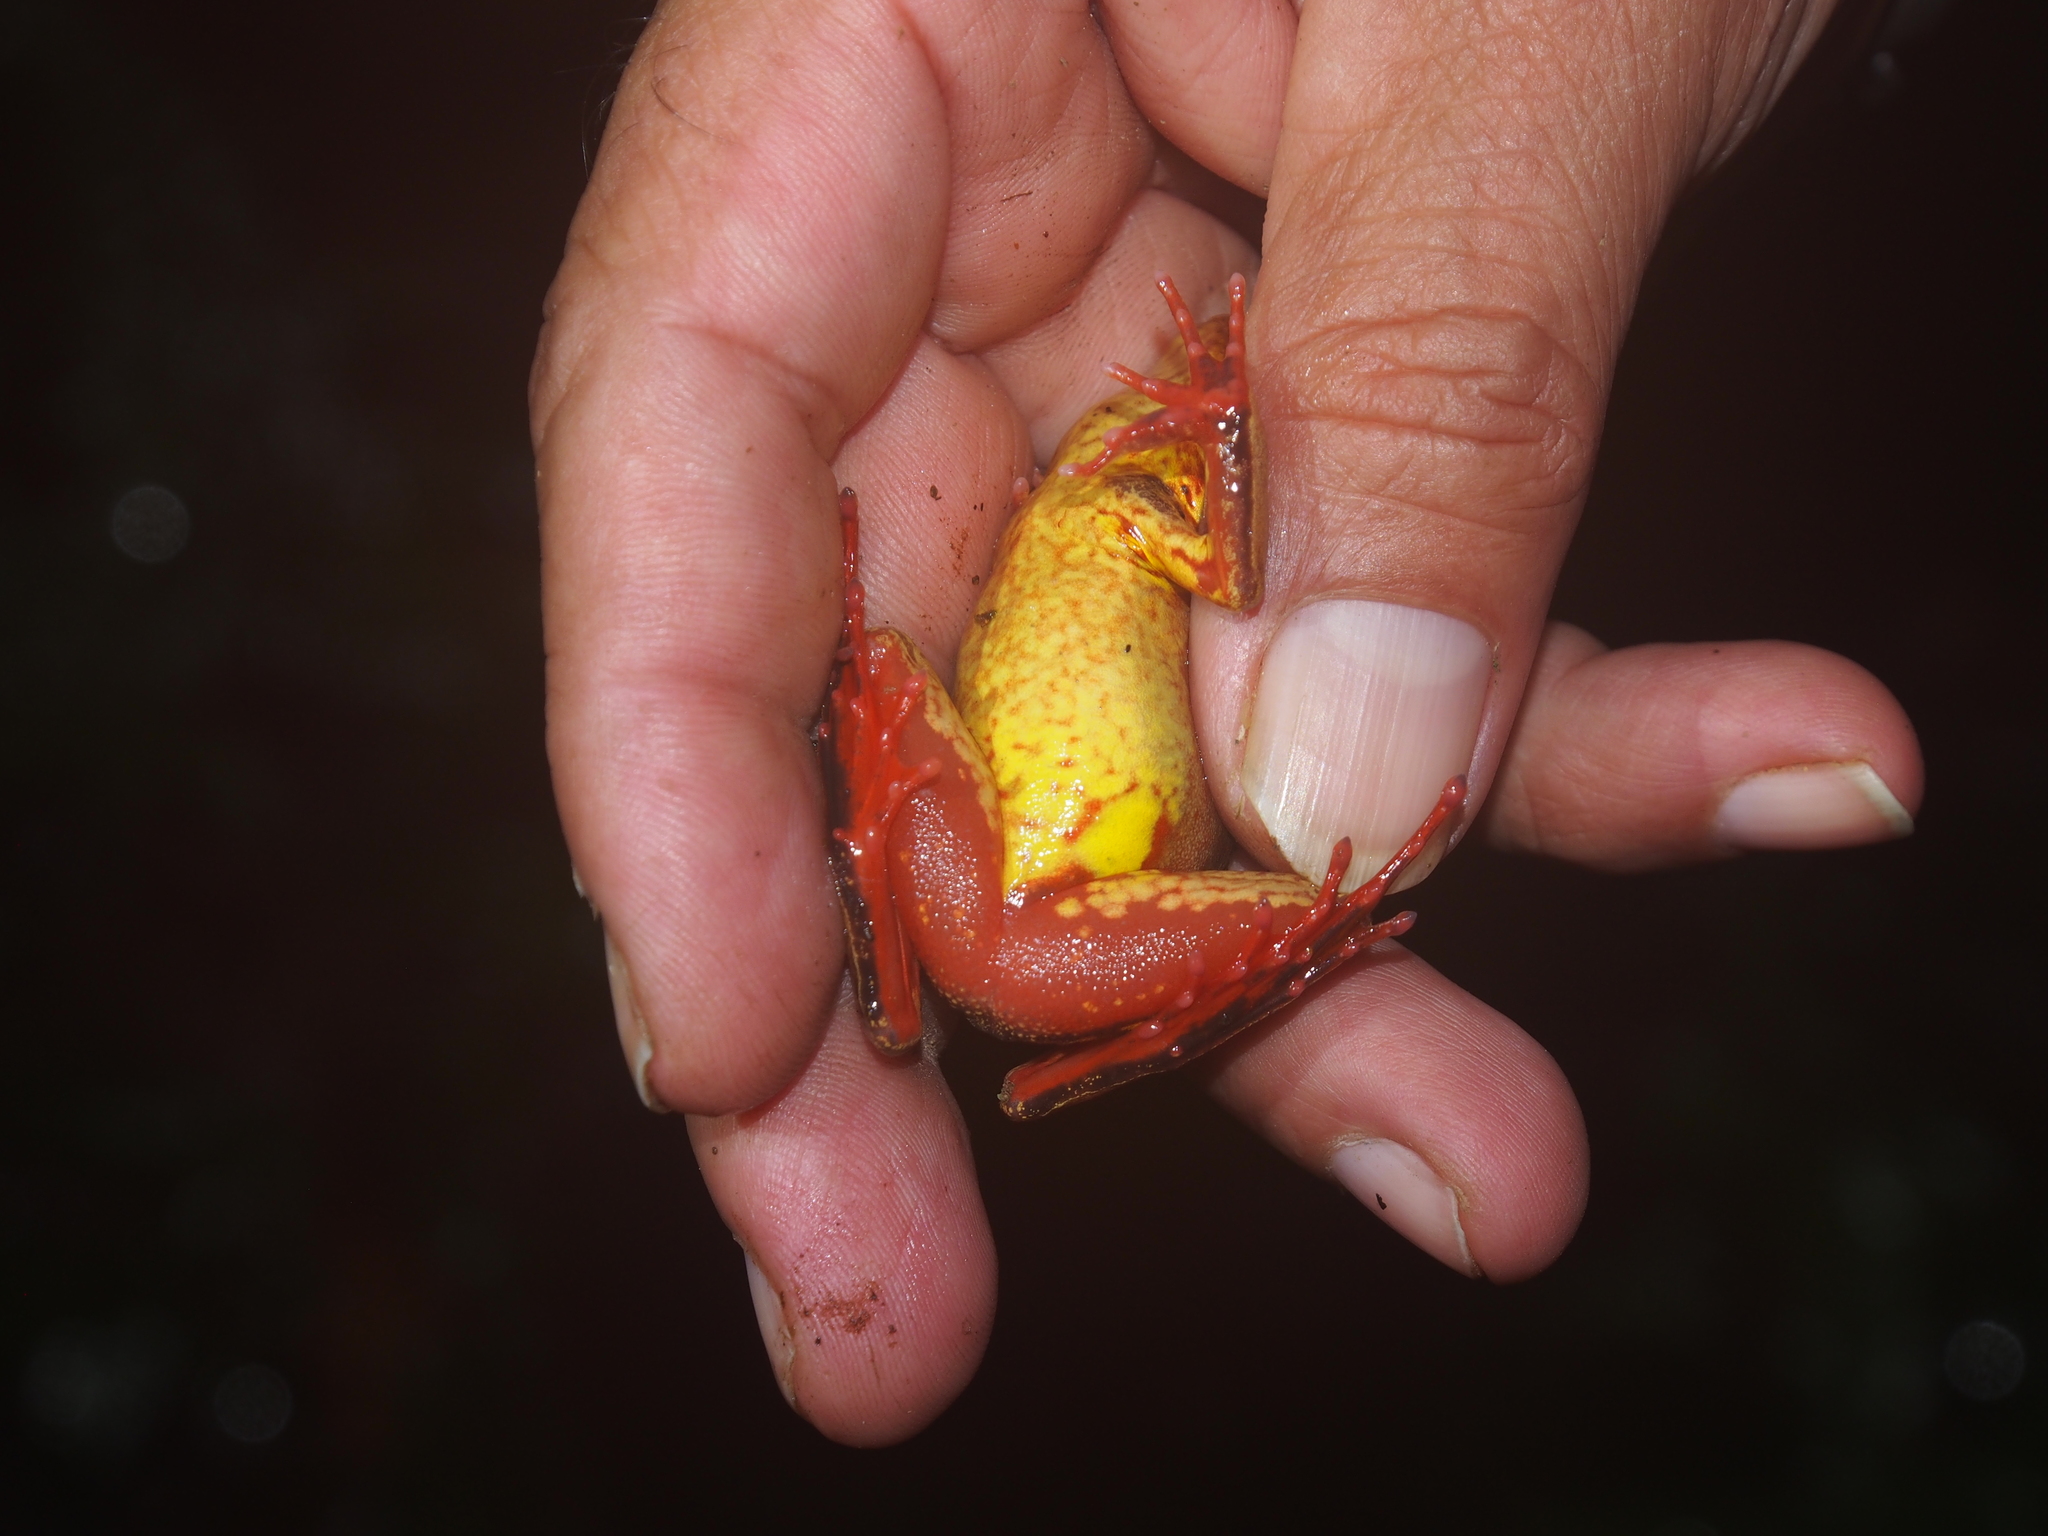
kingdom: Animalia
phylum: Chordata
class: Amphibia
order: Anura
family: Ranidae
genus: Lithobates
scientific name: Lithobates warszewitschii
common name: Warszewitsch's frog
